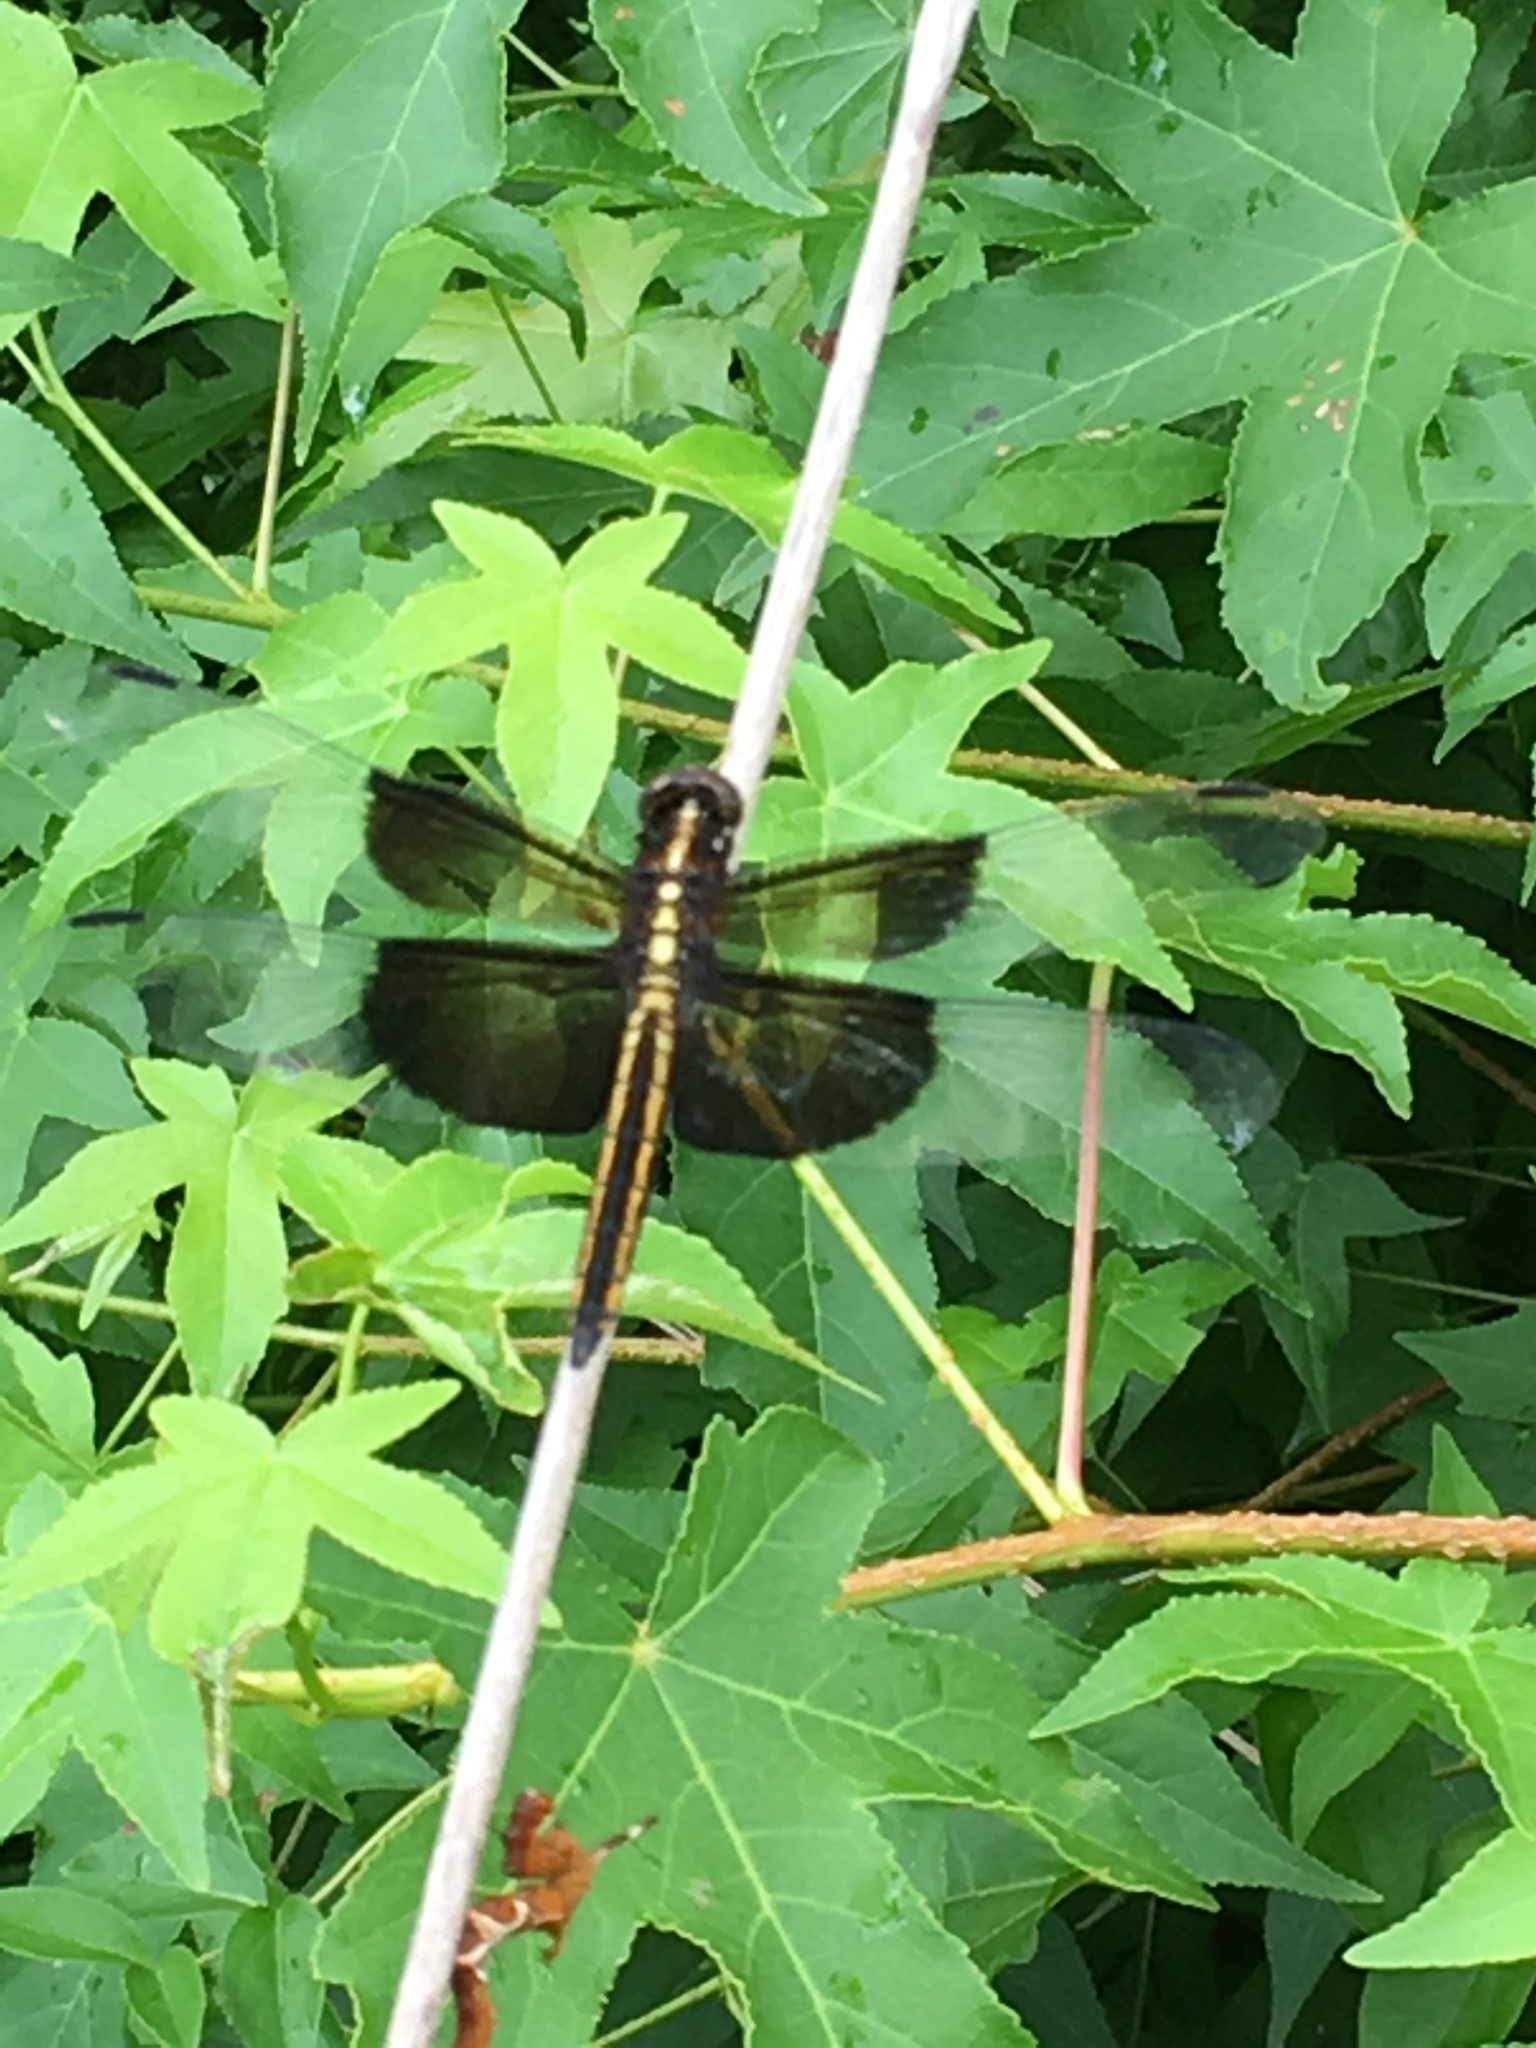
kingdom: Animalia
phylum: Arthropoda
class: Insecta
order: Odonata
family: Libellulidae
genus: Libellula
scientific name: Libellula luctuosa
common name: Widow skimmer
